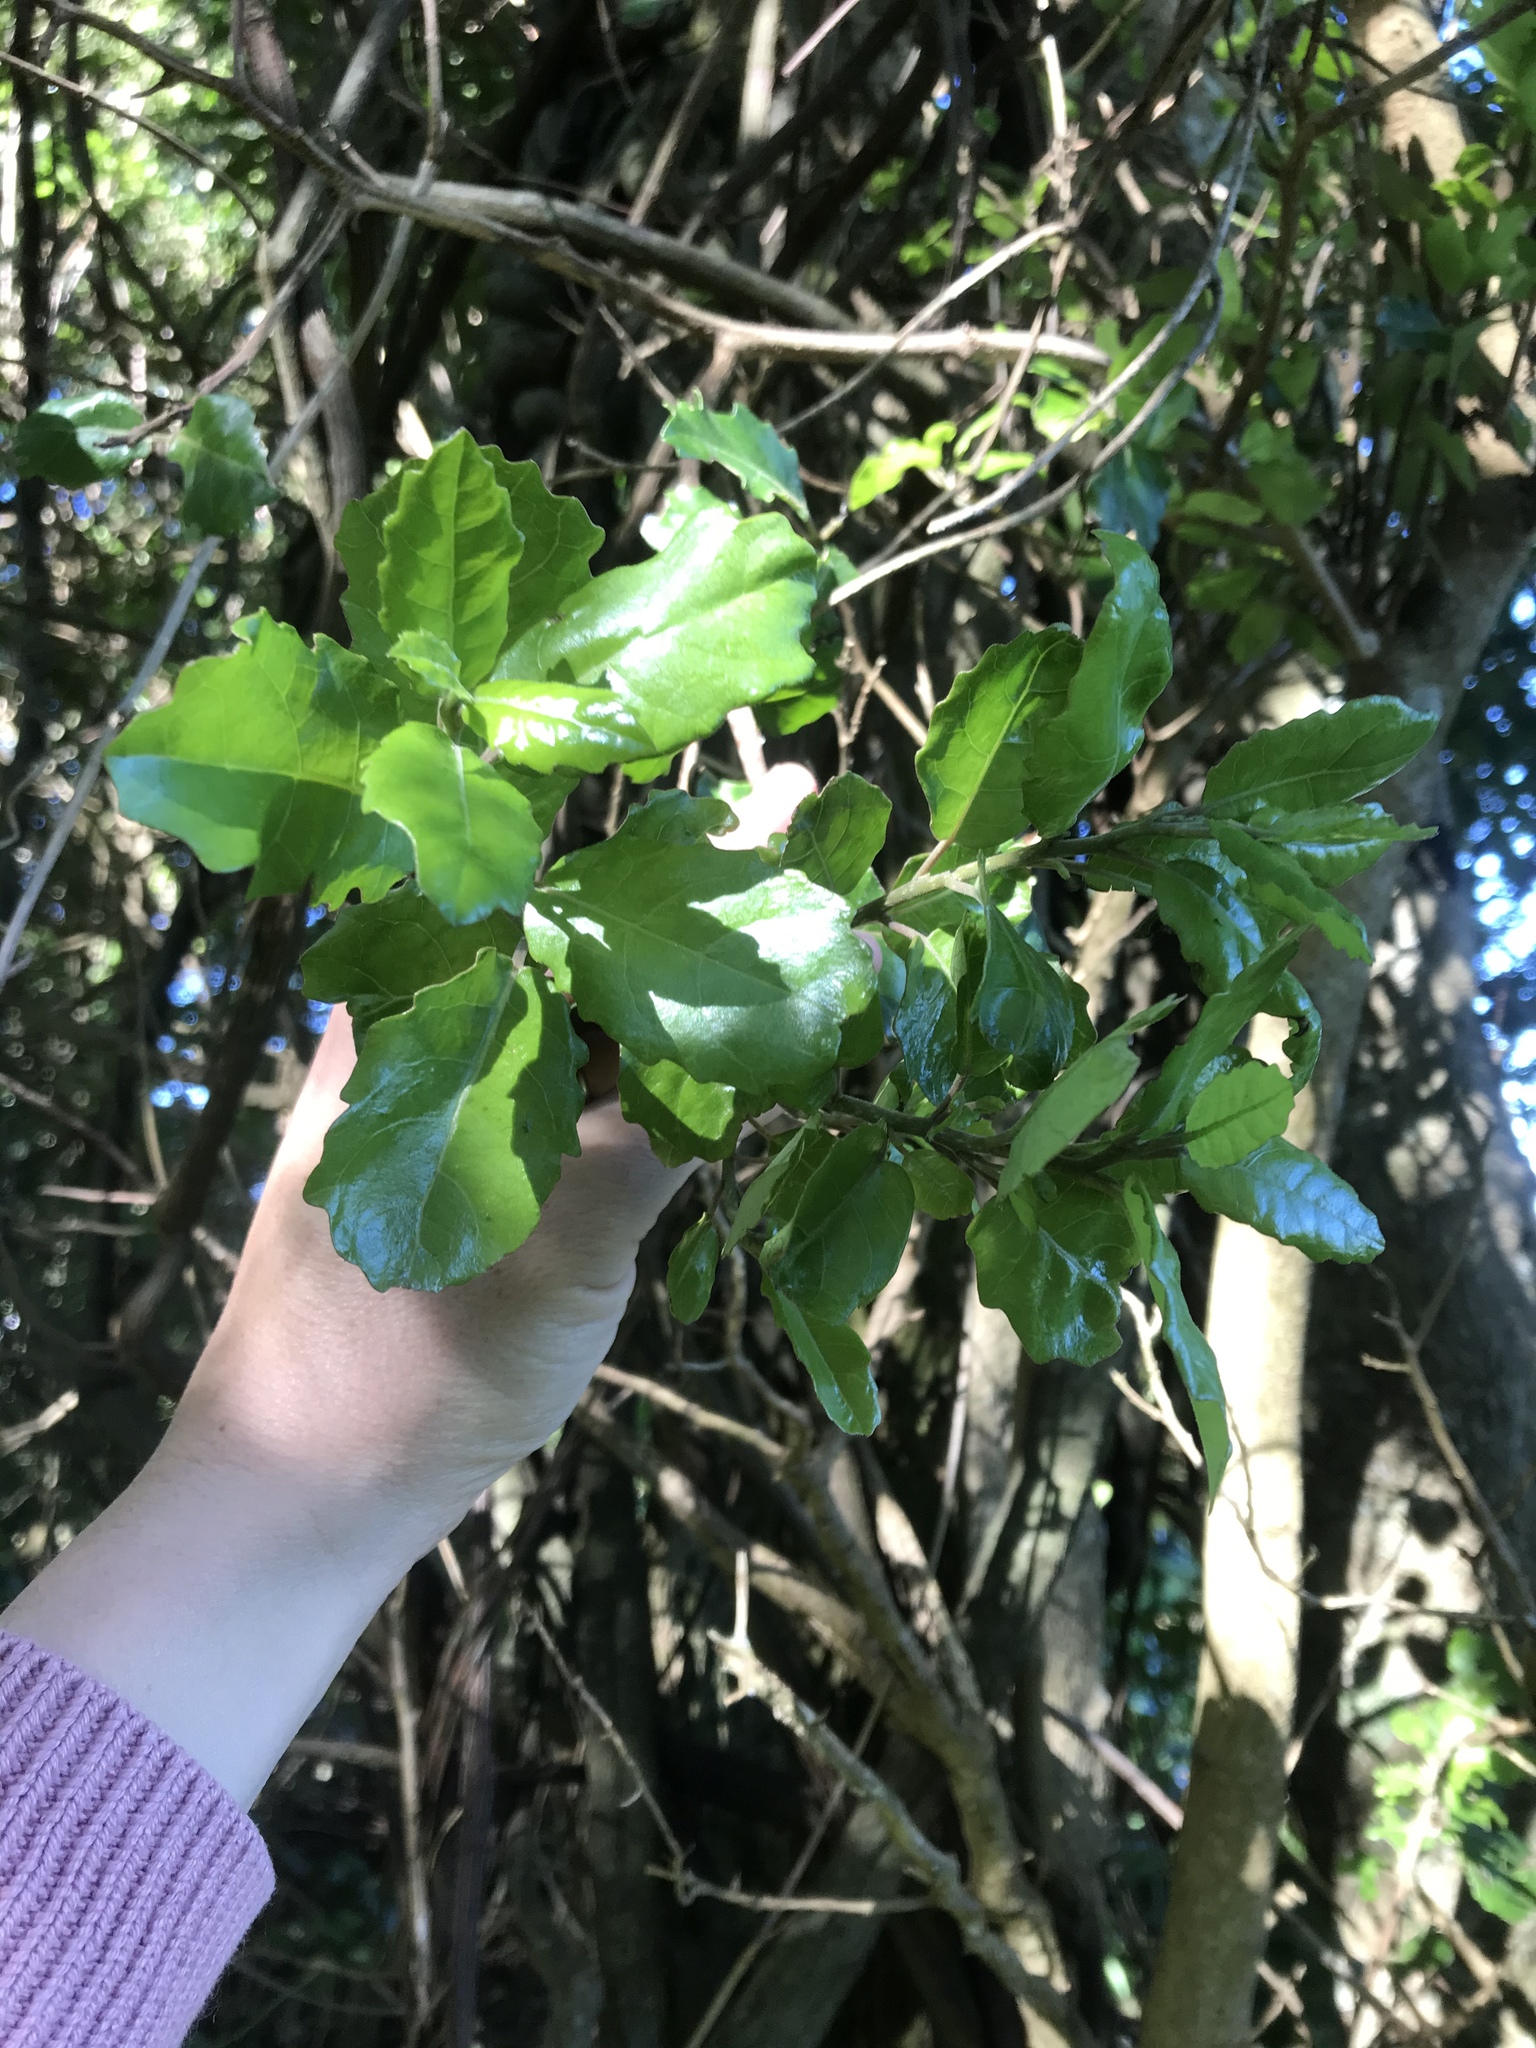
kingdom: Plantae
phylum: Tracheophyta
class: Magnoliopsida
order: Apiales
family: Pennantiaceae
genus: Pennantia
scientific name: Pennantia corymbosa
